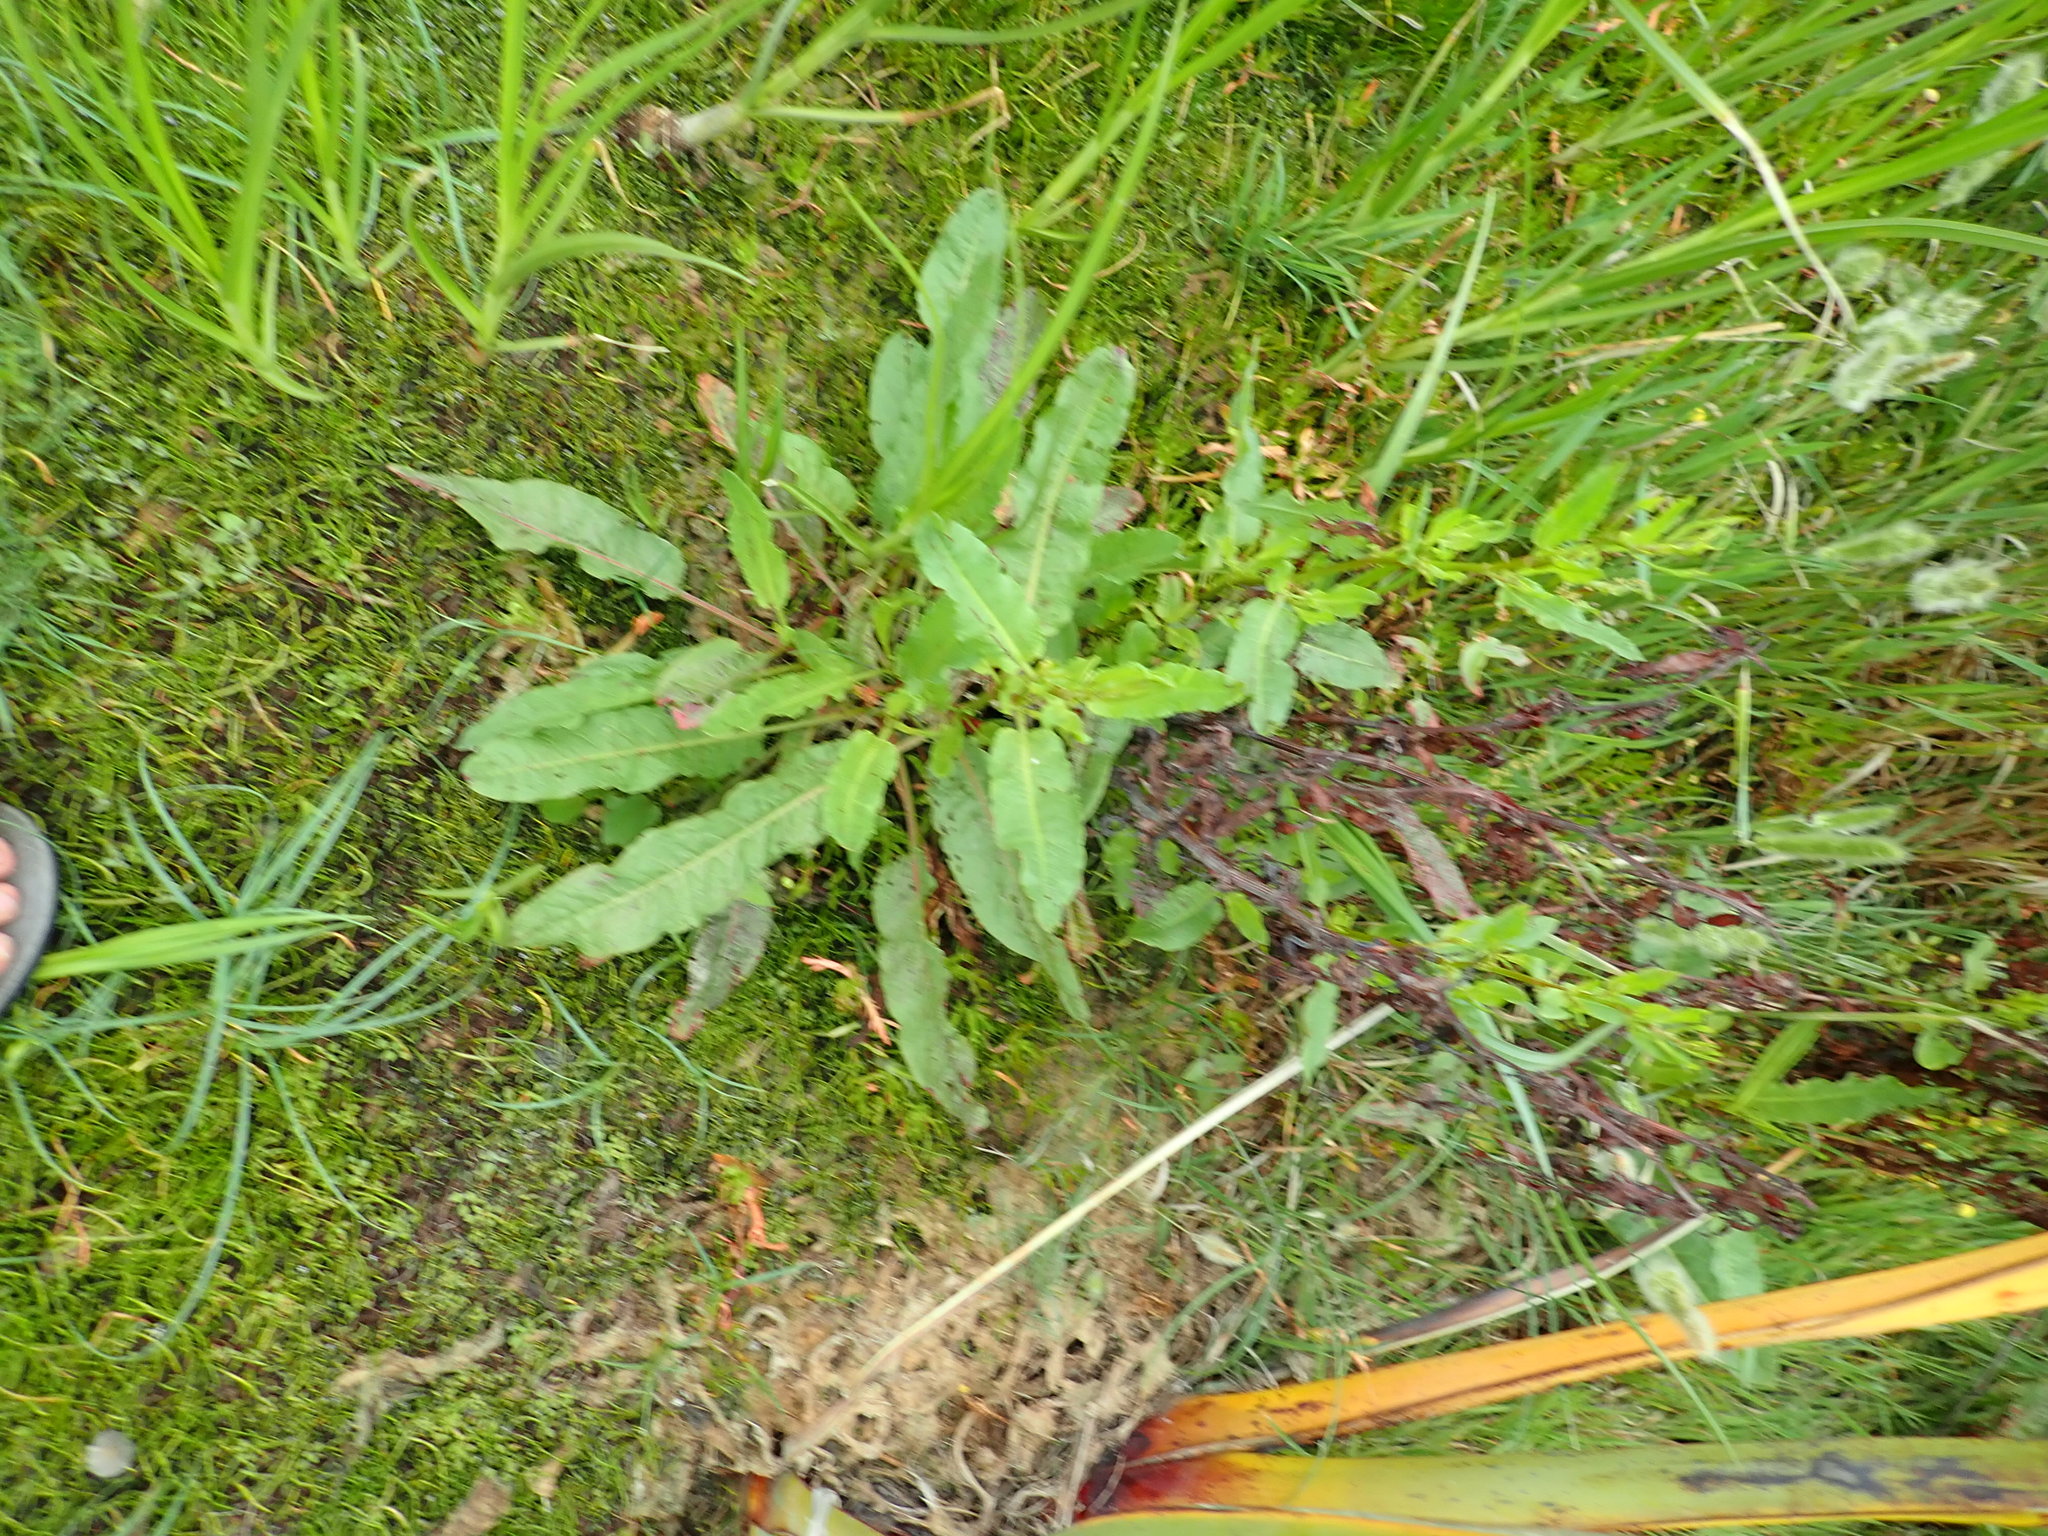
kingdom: Plantae
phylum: Tracheophyta
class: Magnoliopsida
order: Caryophyllales
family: Polygonaceae
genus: Rumex
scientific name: Rumex crispus
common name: Curled dock
